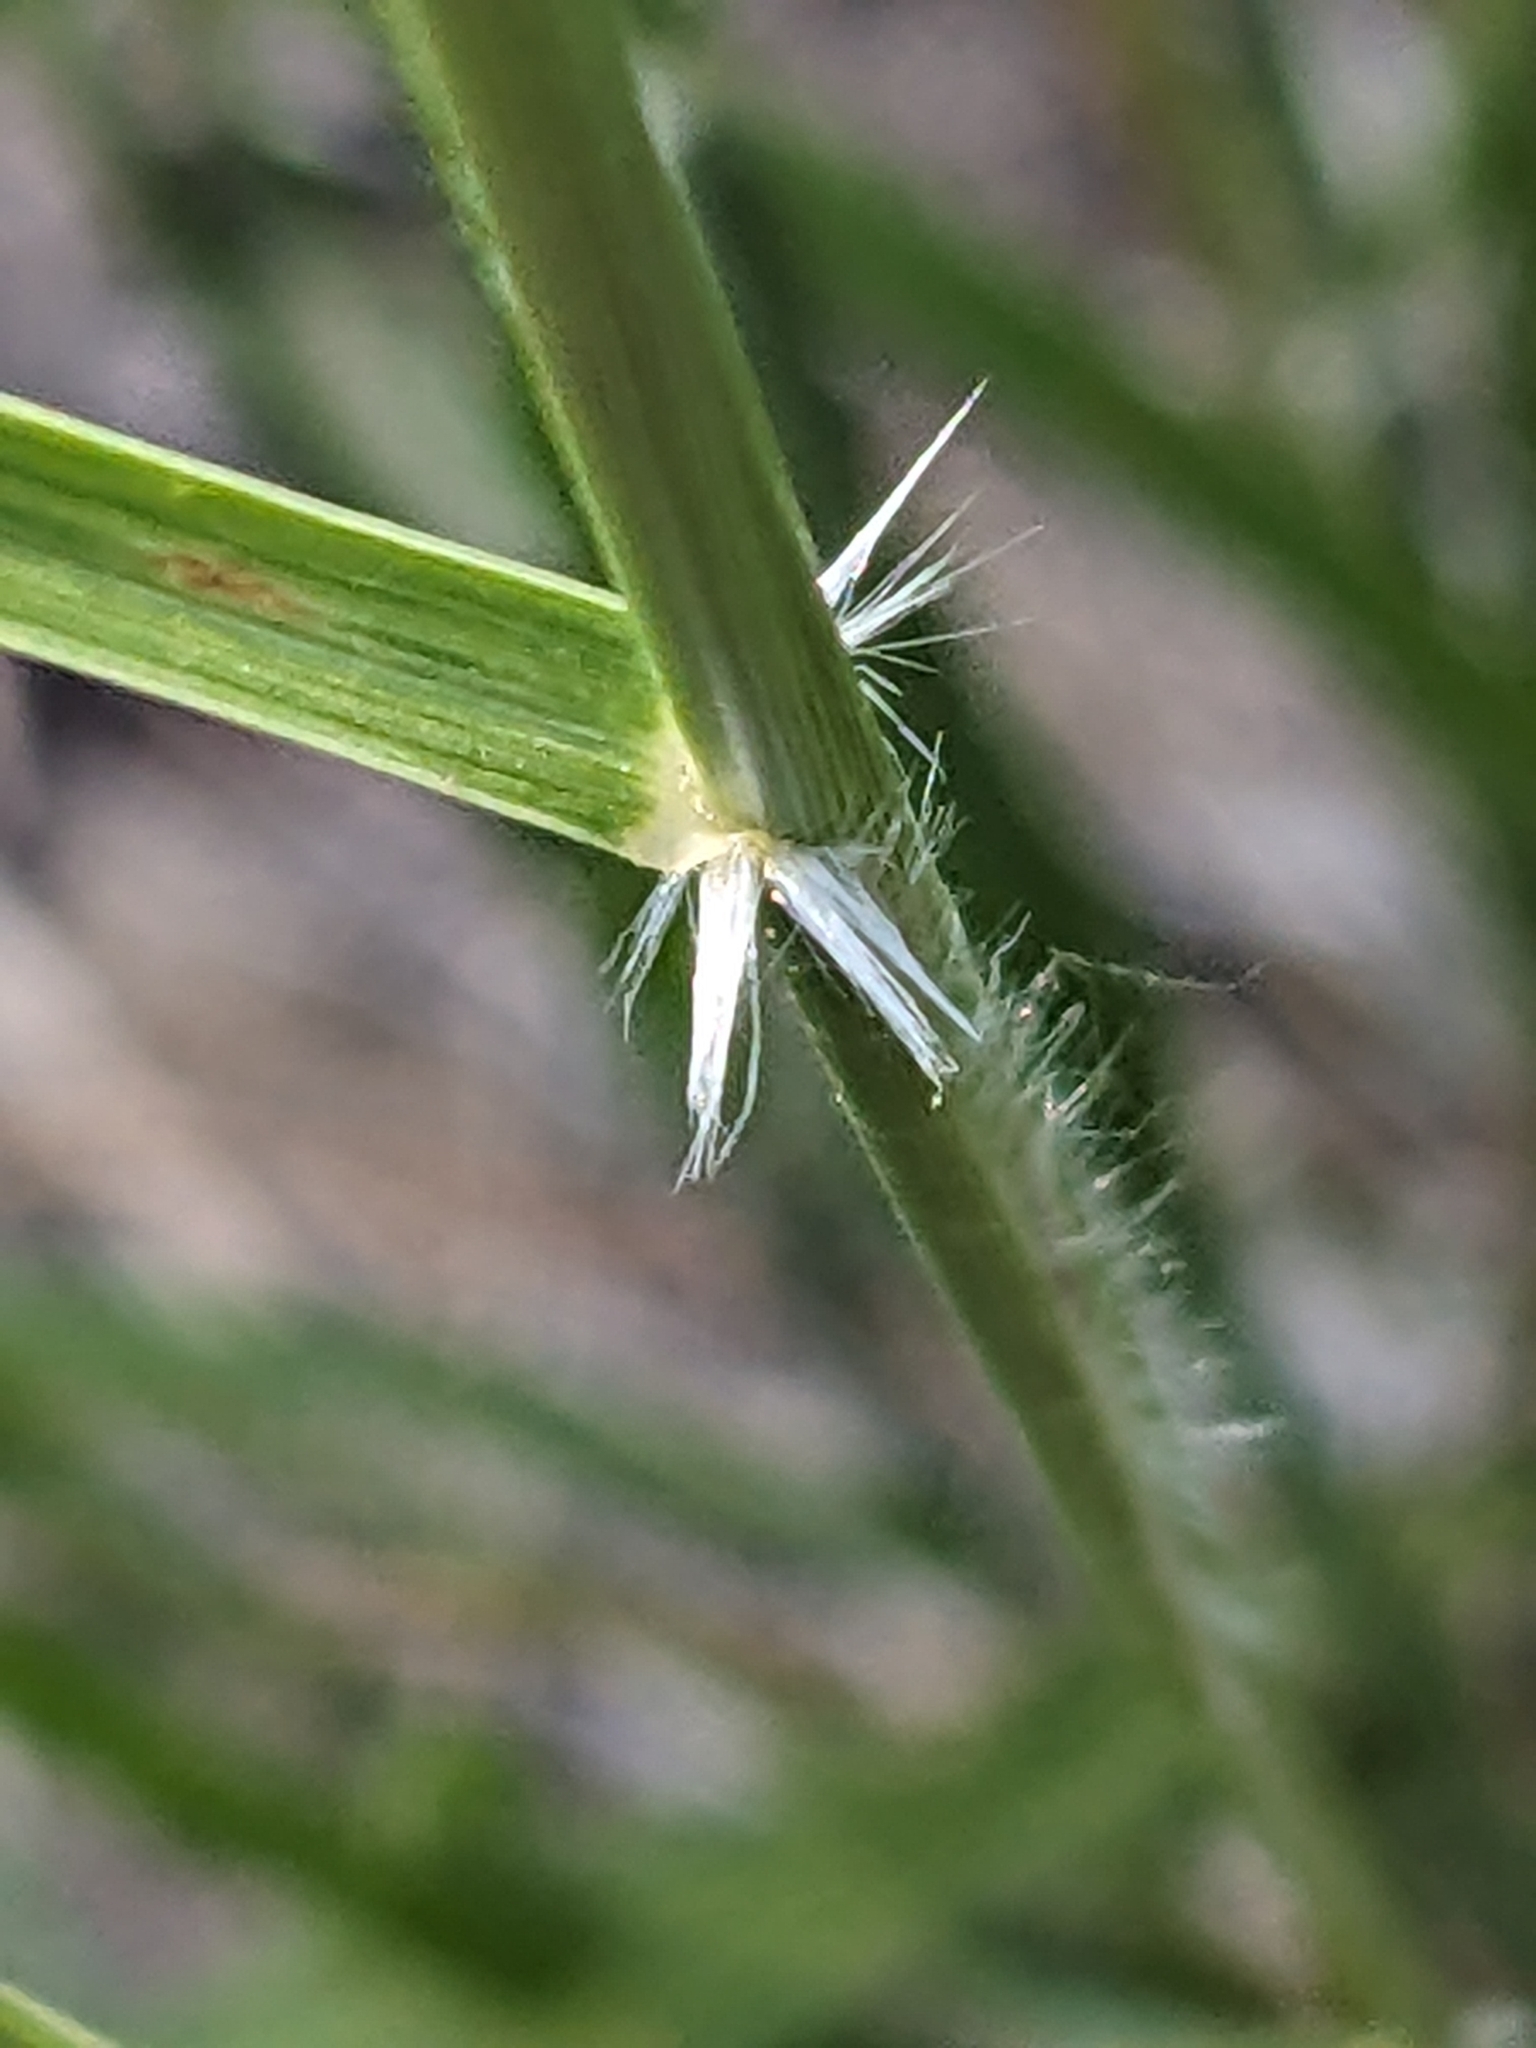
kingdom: Plantae
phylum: Tracheophyta
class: Liliopsida
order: Poales
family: Poaceae
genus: Sporobolus
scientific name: Sporobolus cryptandrus
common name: Sand dropseed
